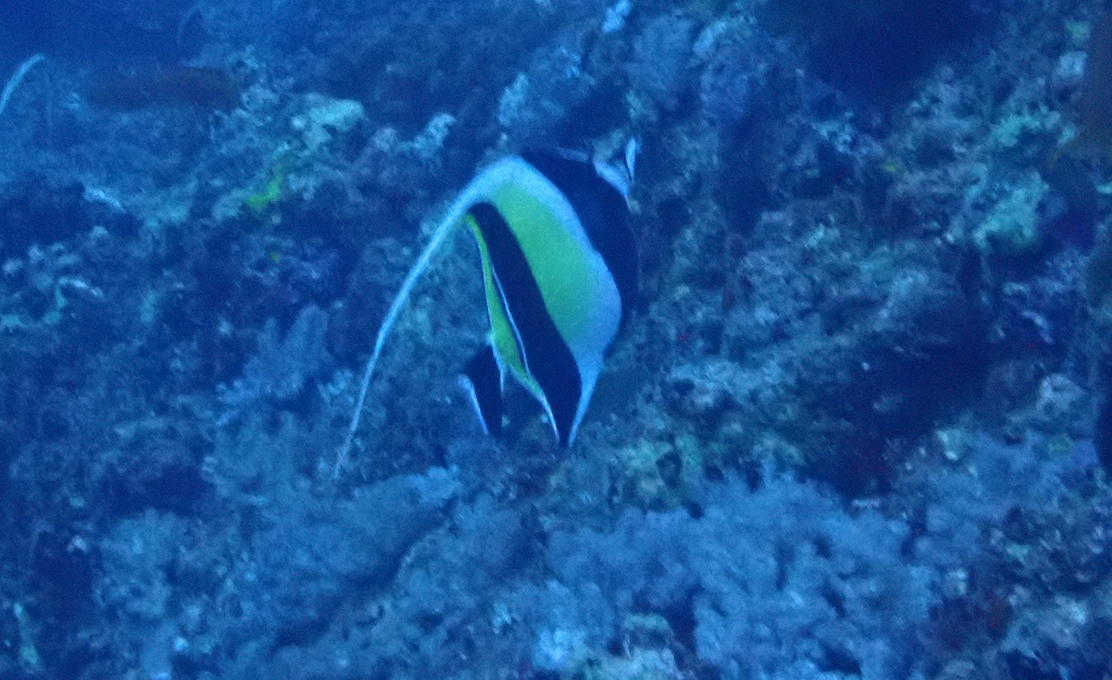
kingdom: Animalia
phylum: Chordata
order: Perciformes
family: Zanclidae
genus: Zanclus
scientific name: Zanclus cornutus
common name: Moorish idol
